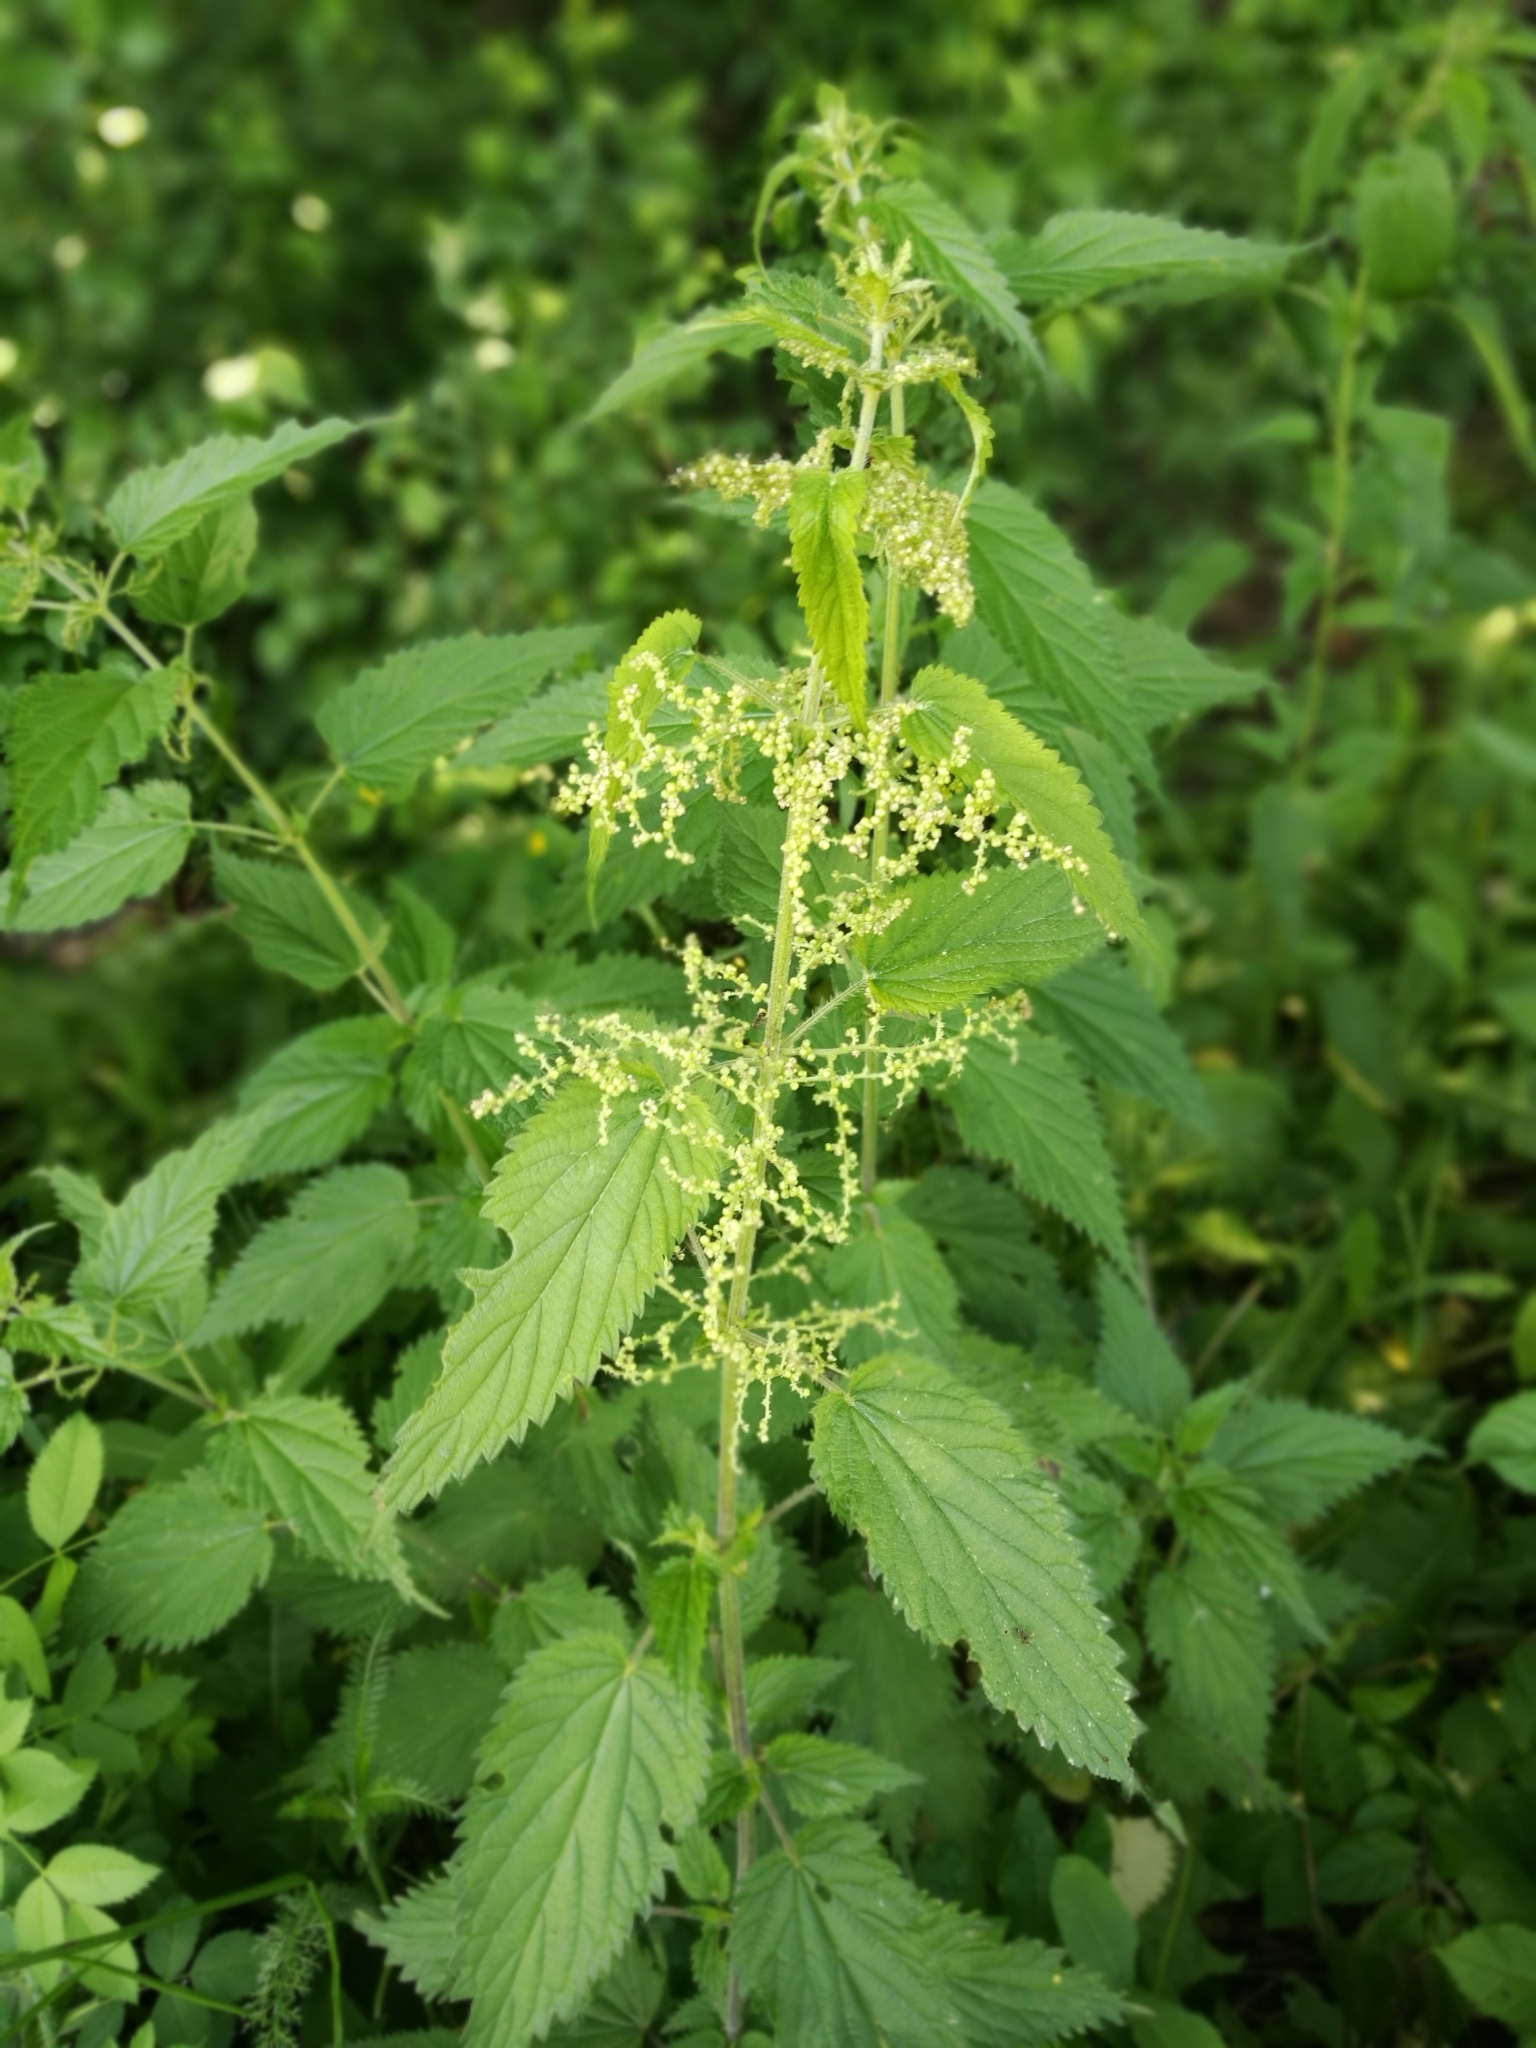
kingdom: Plantae
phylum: Tracheophyta
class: Magnoliopsida
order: Rosales
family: Urticaceae
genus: Urtica
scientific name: Urtica dioica
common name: Common nettle
